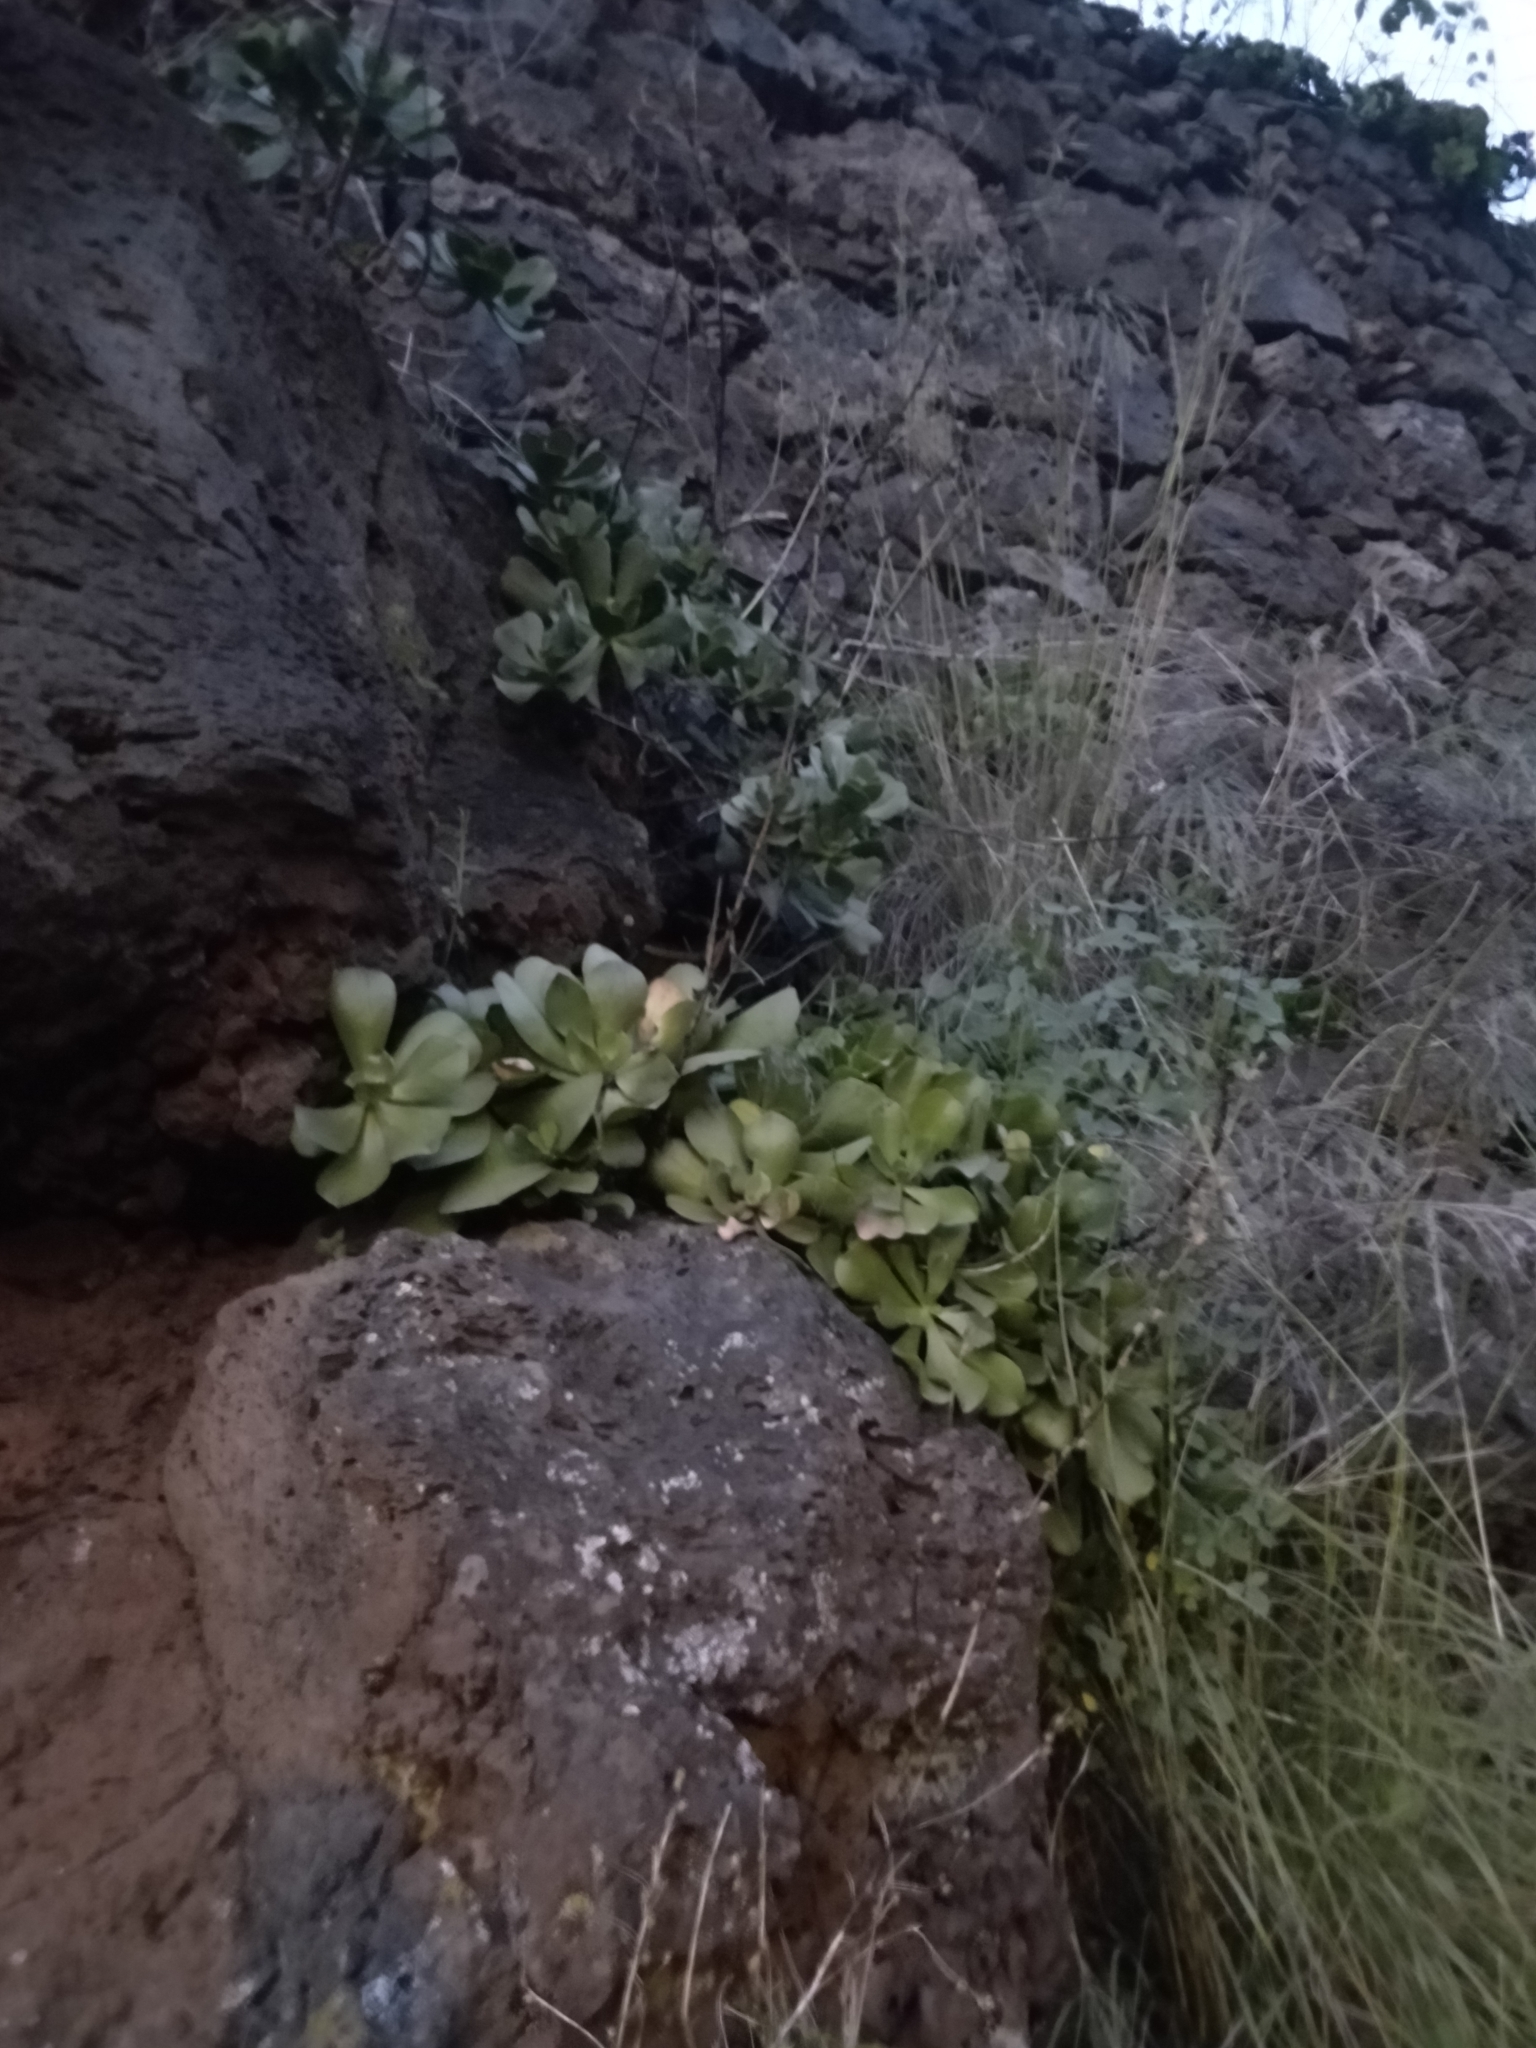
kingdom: Plantae
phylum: Tracheophyta
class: Magnoliopsida
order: Saxifragales
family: Crassulaceae
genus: Aeonium
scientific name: Aeonium glutinosum
